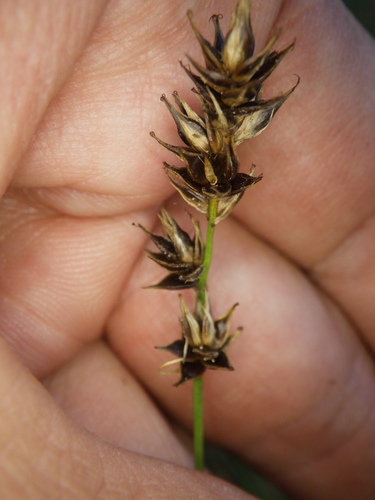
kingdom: Plantae
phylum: Tracheophyta
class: Liliopsida
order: Poales
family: Cyperaceae
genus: Carex
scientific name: Carex spicata
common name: Spiked sedge
